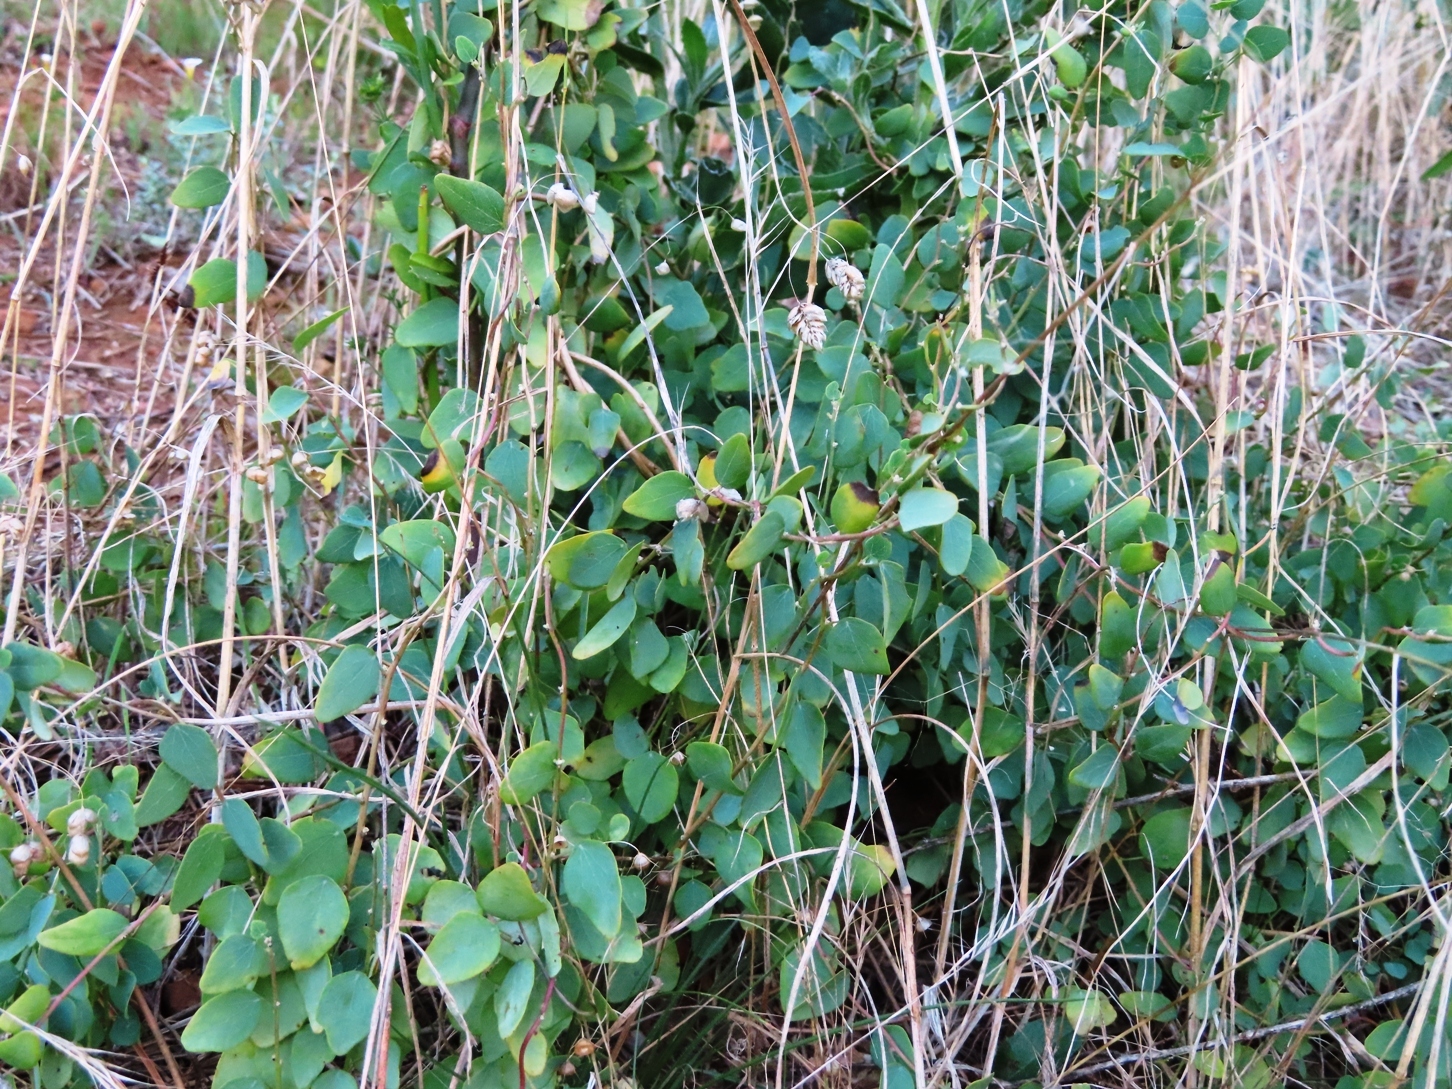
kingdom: Plantae
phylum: Tracheophyta
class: Magnoliopsida
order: Ranunculales
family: Menispermaceae
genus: Cissampelos
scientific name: Cissampelos capensis
